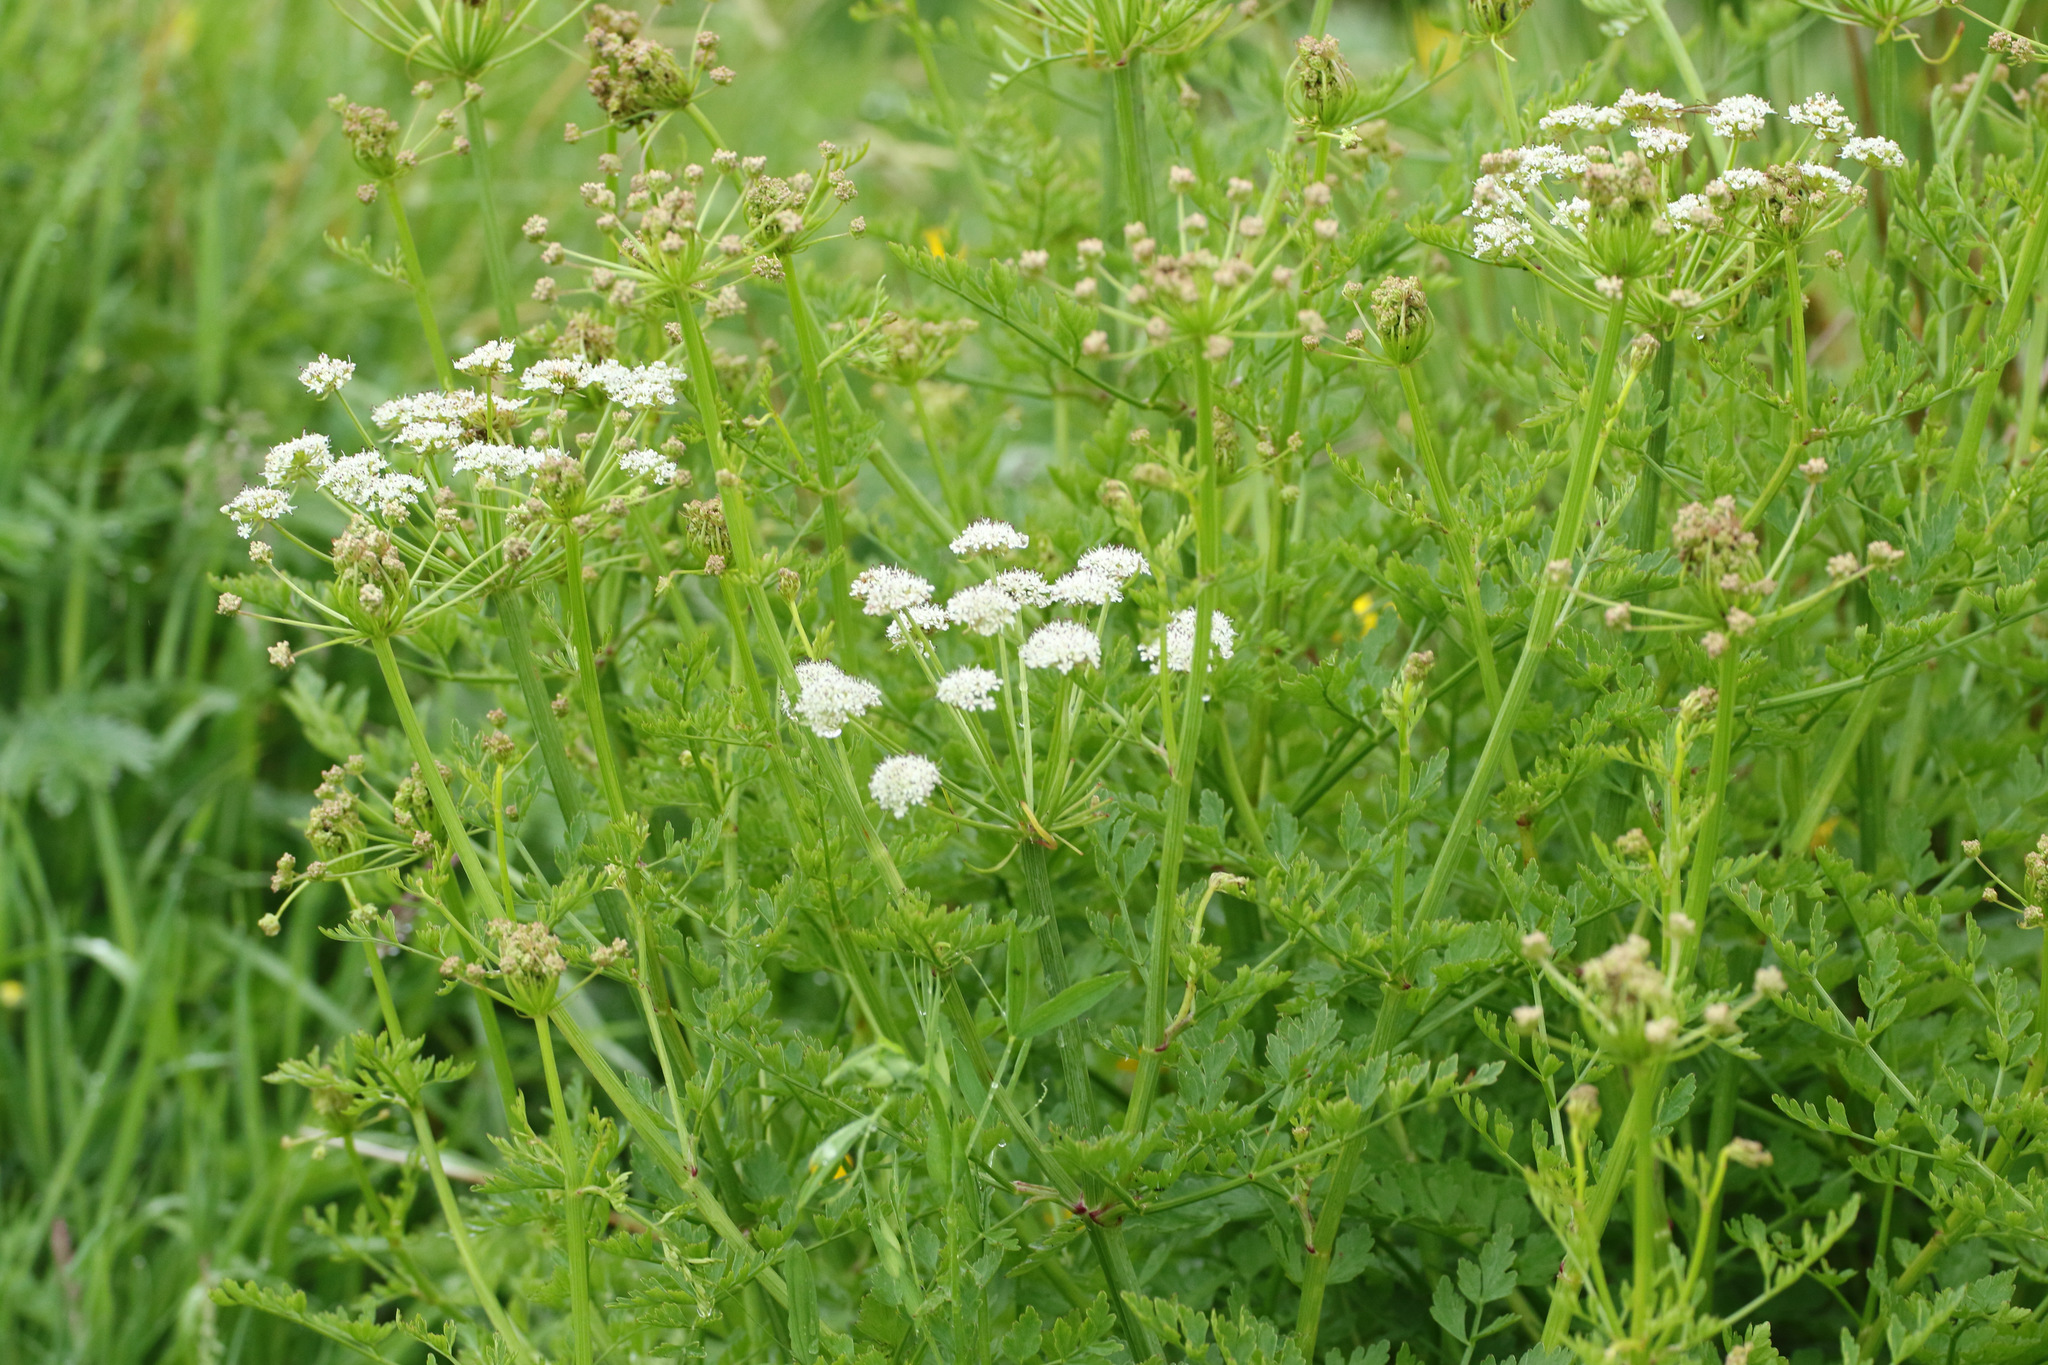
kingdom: Plantae
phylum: Tracheophyta
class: Magnoliopsida
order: Apiales
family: Apiaceae
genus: Oenanthe
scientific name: Oenanthe crocata
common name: Hemlock water-dropwort
